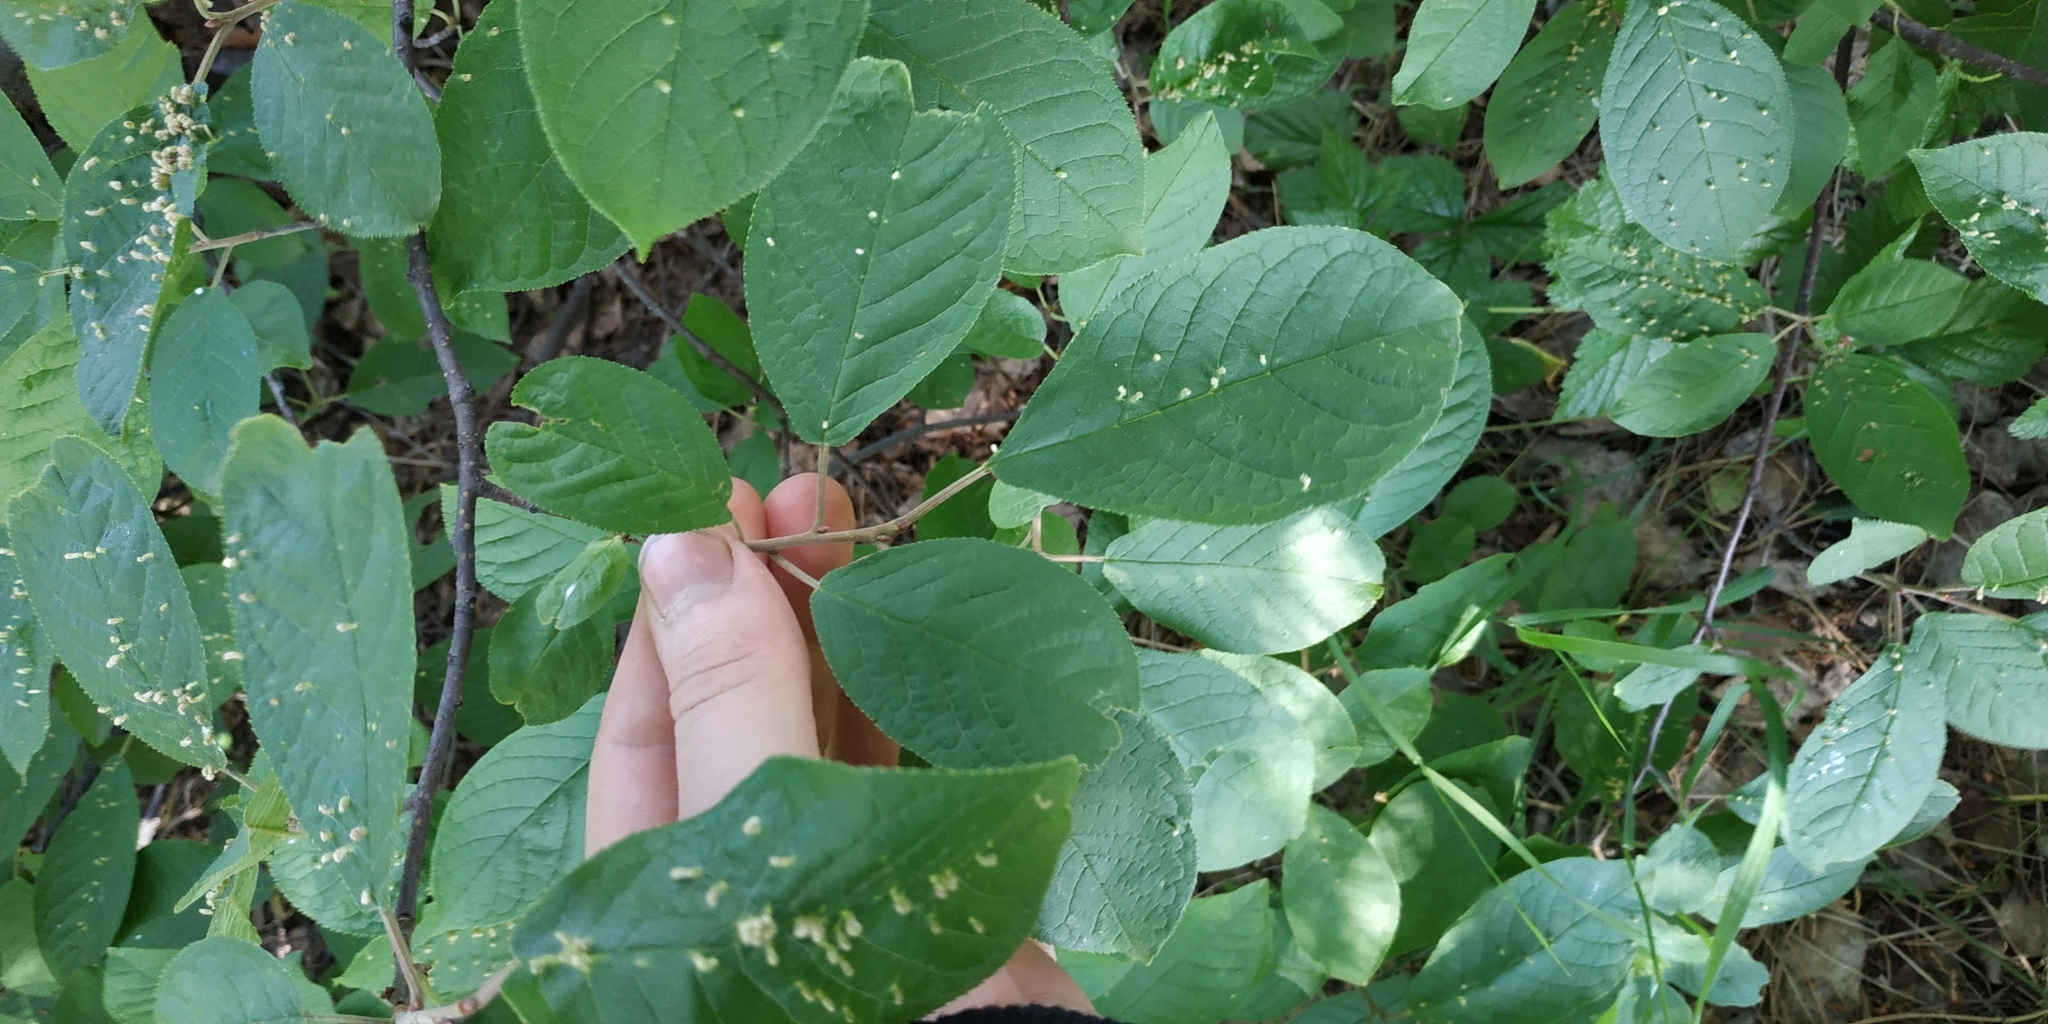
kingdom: Animalia
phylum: Arthropoda
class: Arachnida
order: Trombidiformes
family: Eriophyidae
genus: Phyllocoptes
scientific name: Phyllocoptes eupadi
